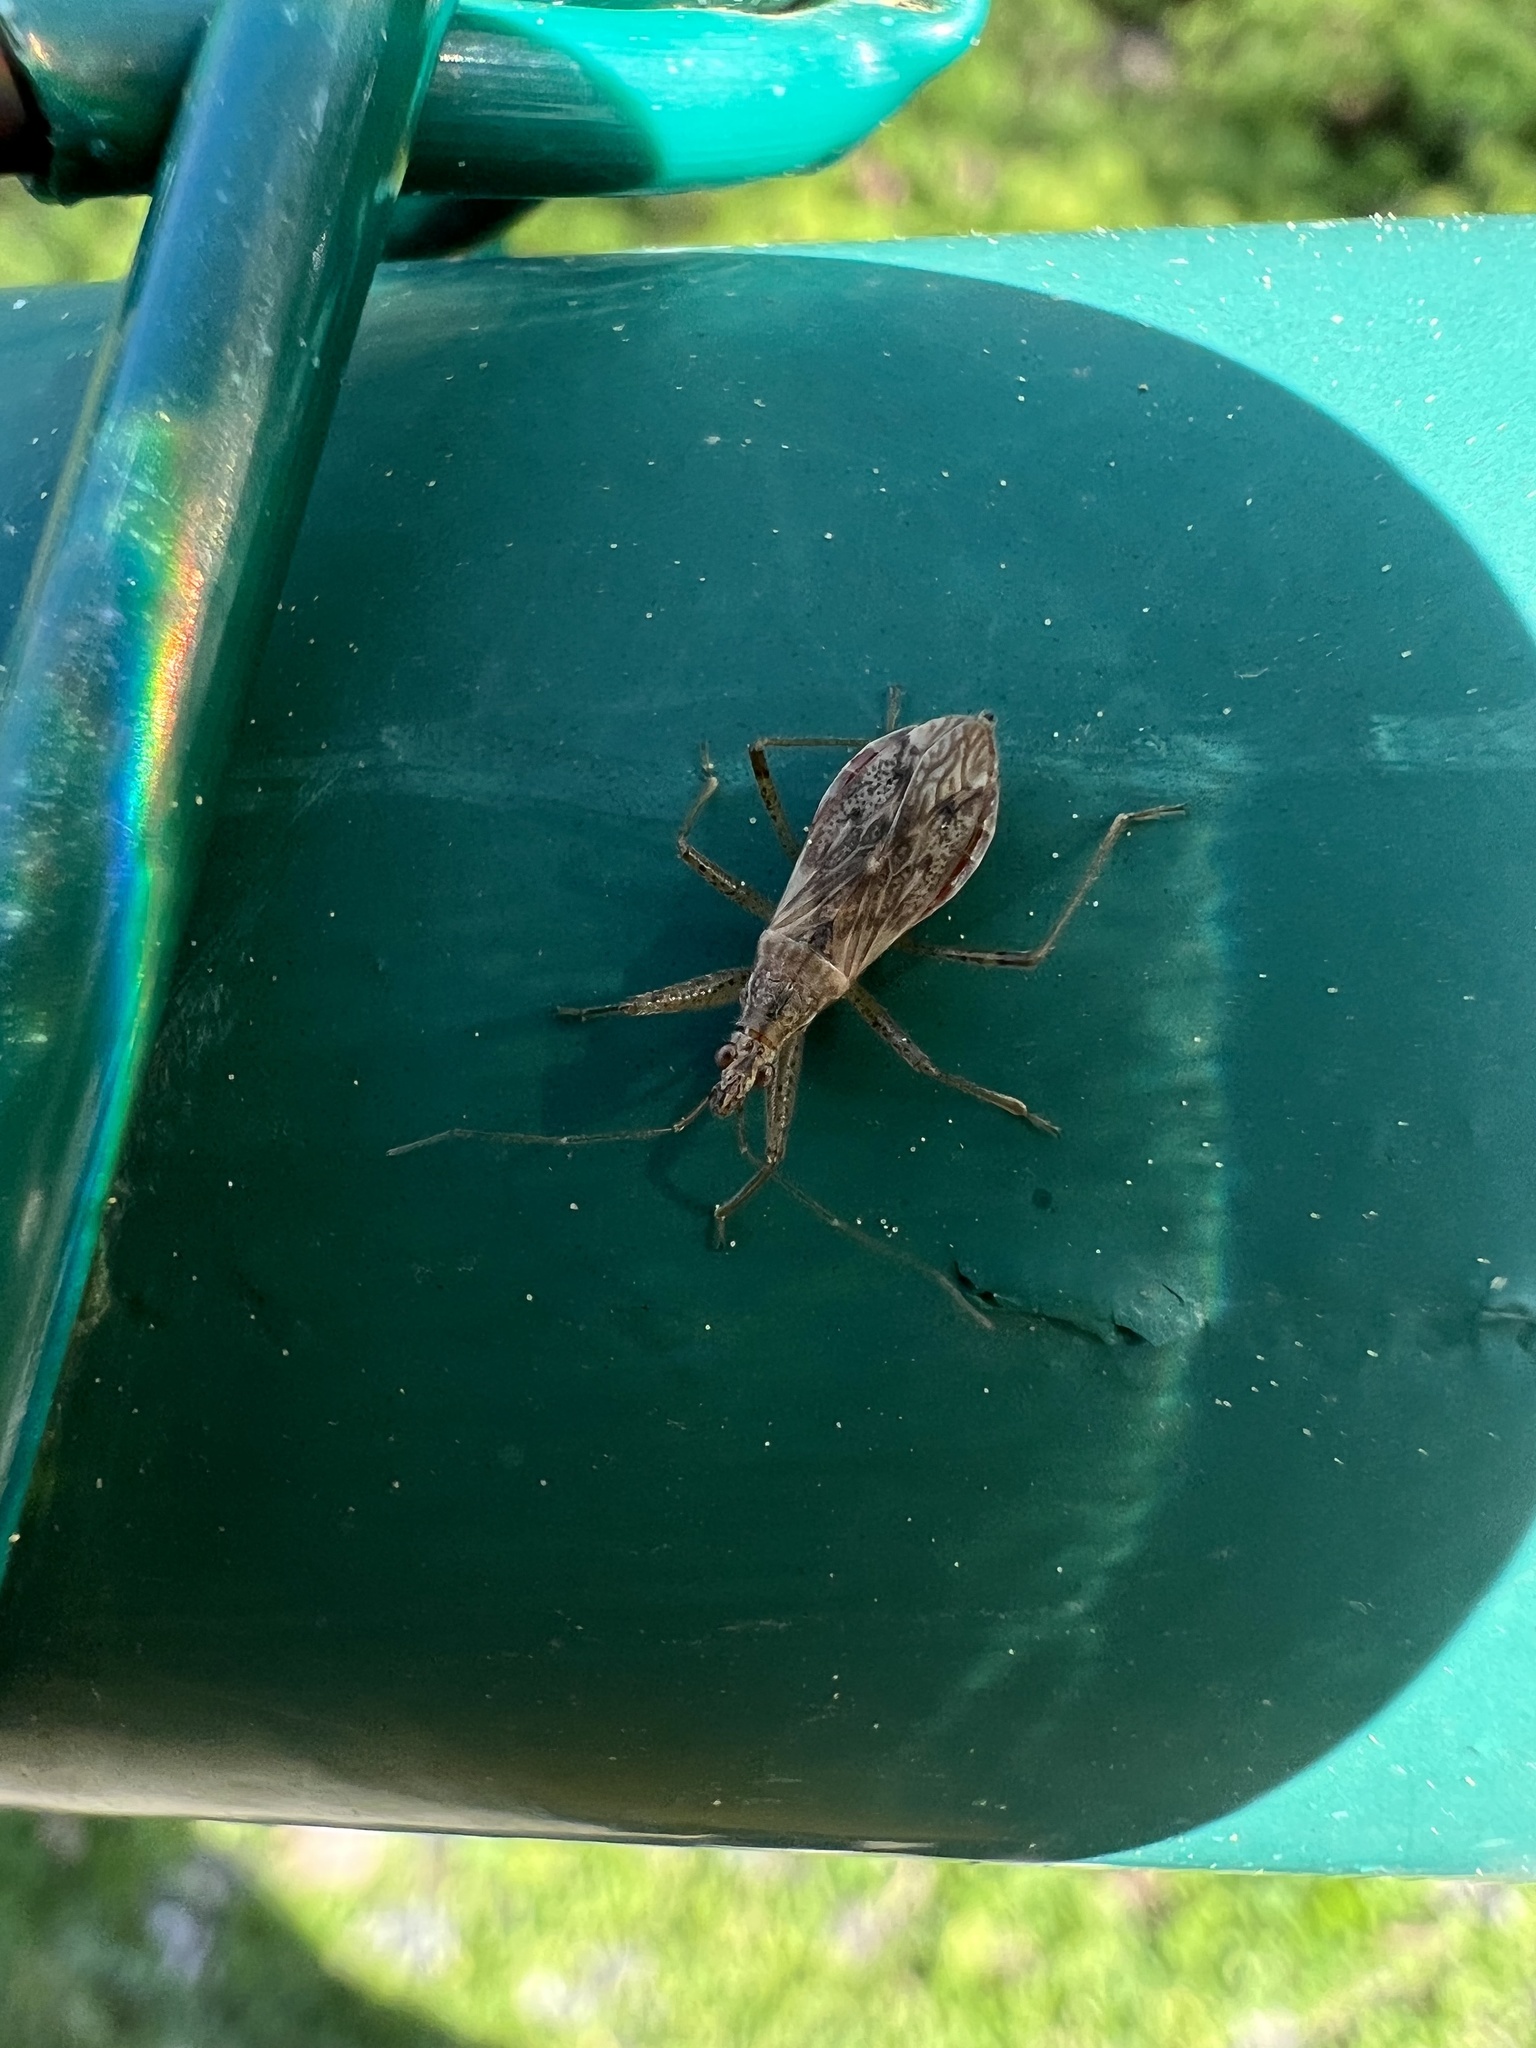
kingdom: Animalia
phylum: Arthropoda
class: Insecta
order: Hemiptera
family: Nabidae
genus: Nabis
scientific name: Nabis roseipennis
